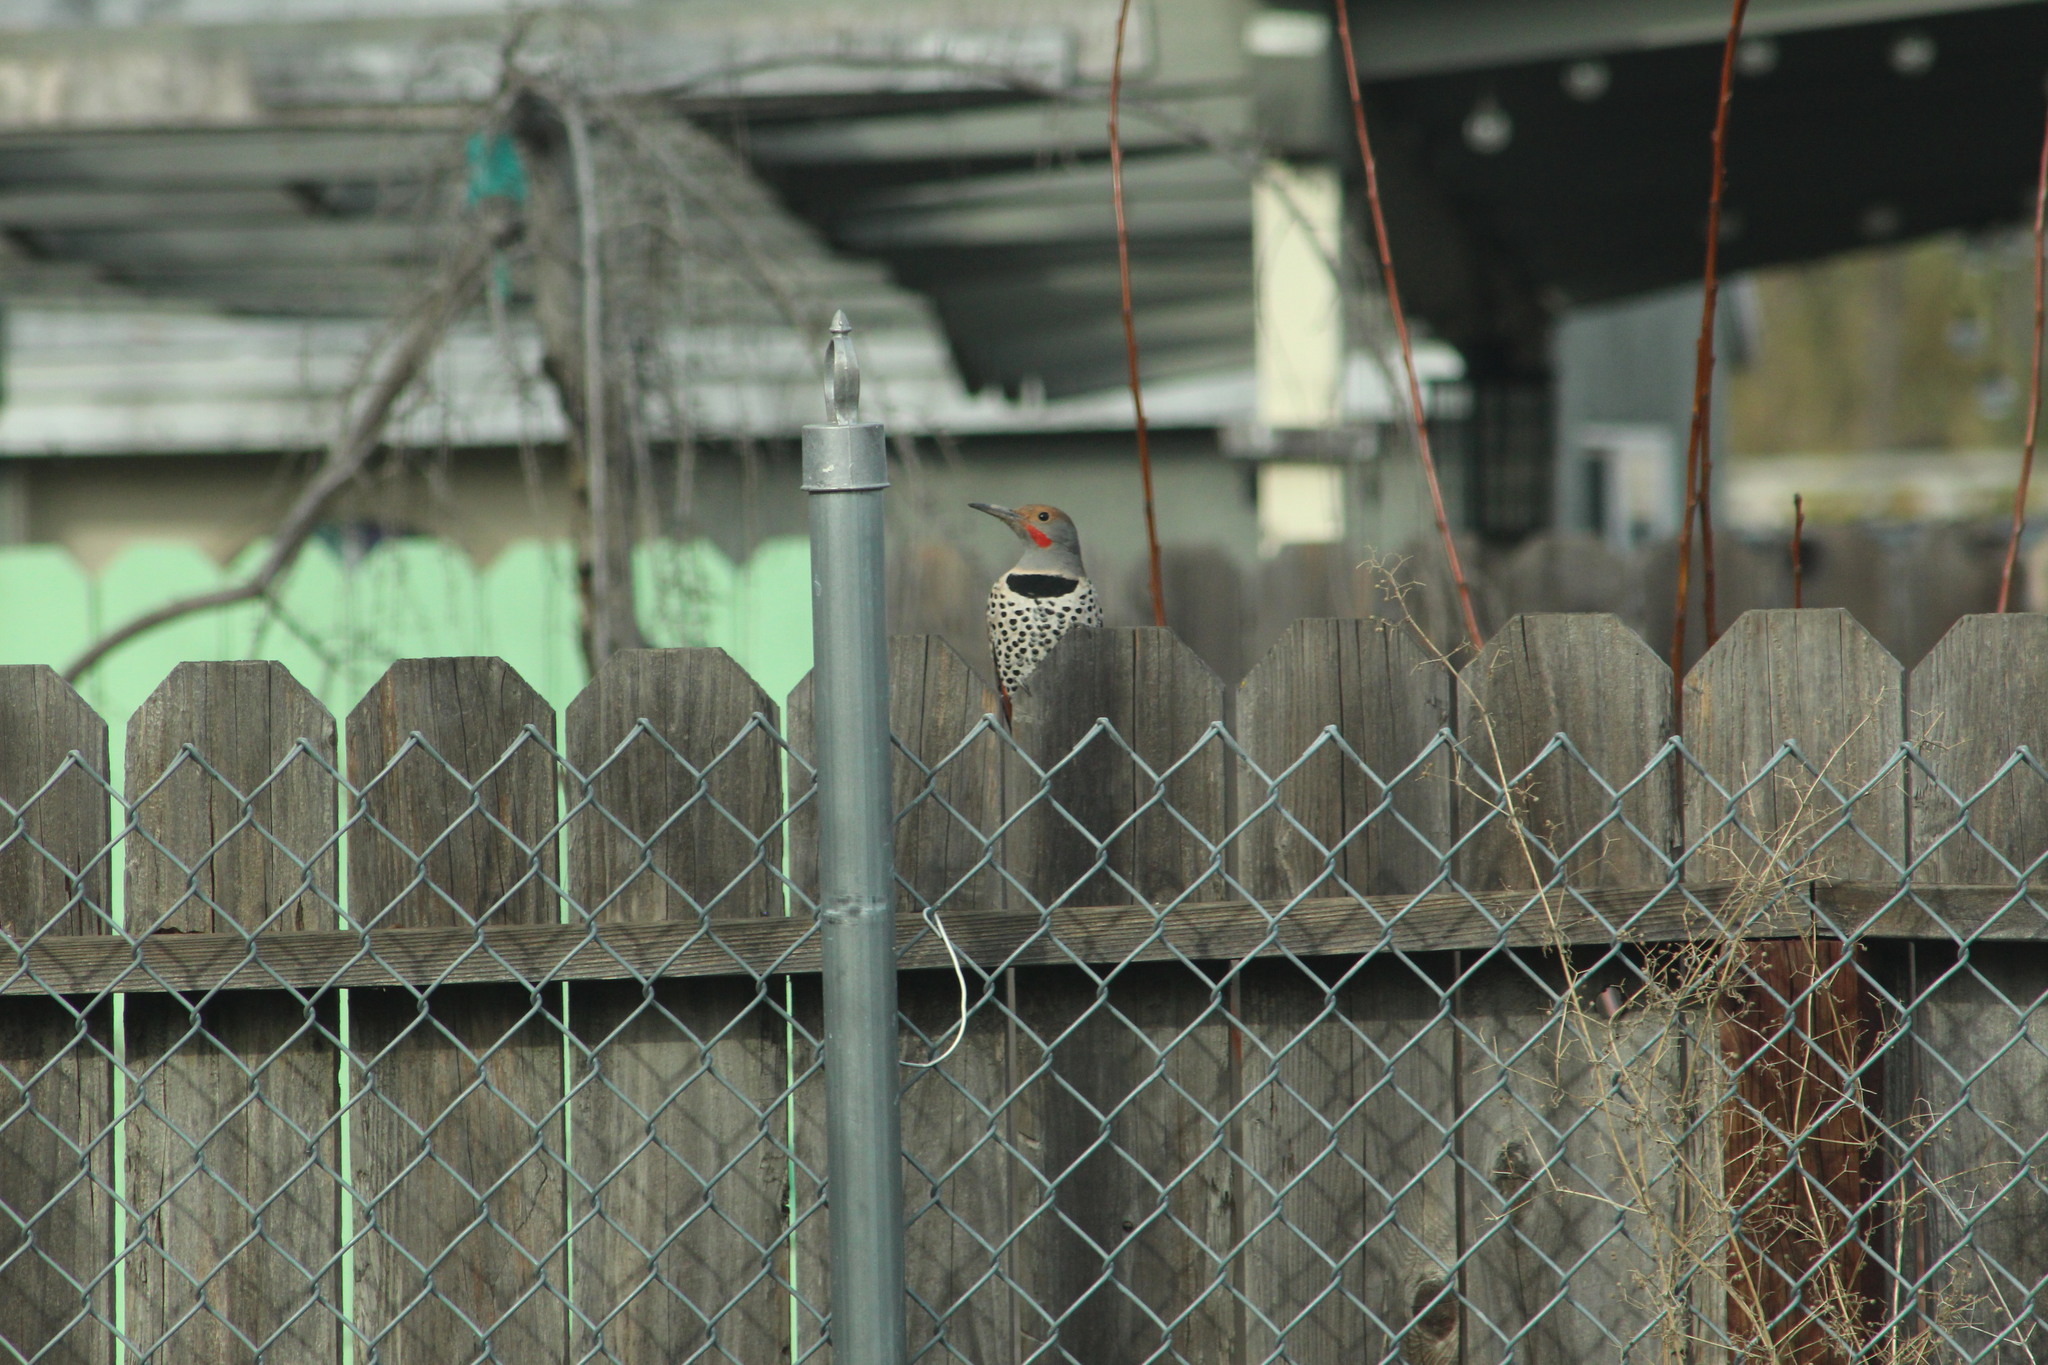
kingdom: Animalia
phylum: Chordata
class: Aves
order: Piciformes
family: Picidae
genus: Colaptes
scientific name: Colaptes auratus
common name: Northern flicker
